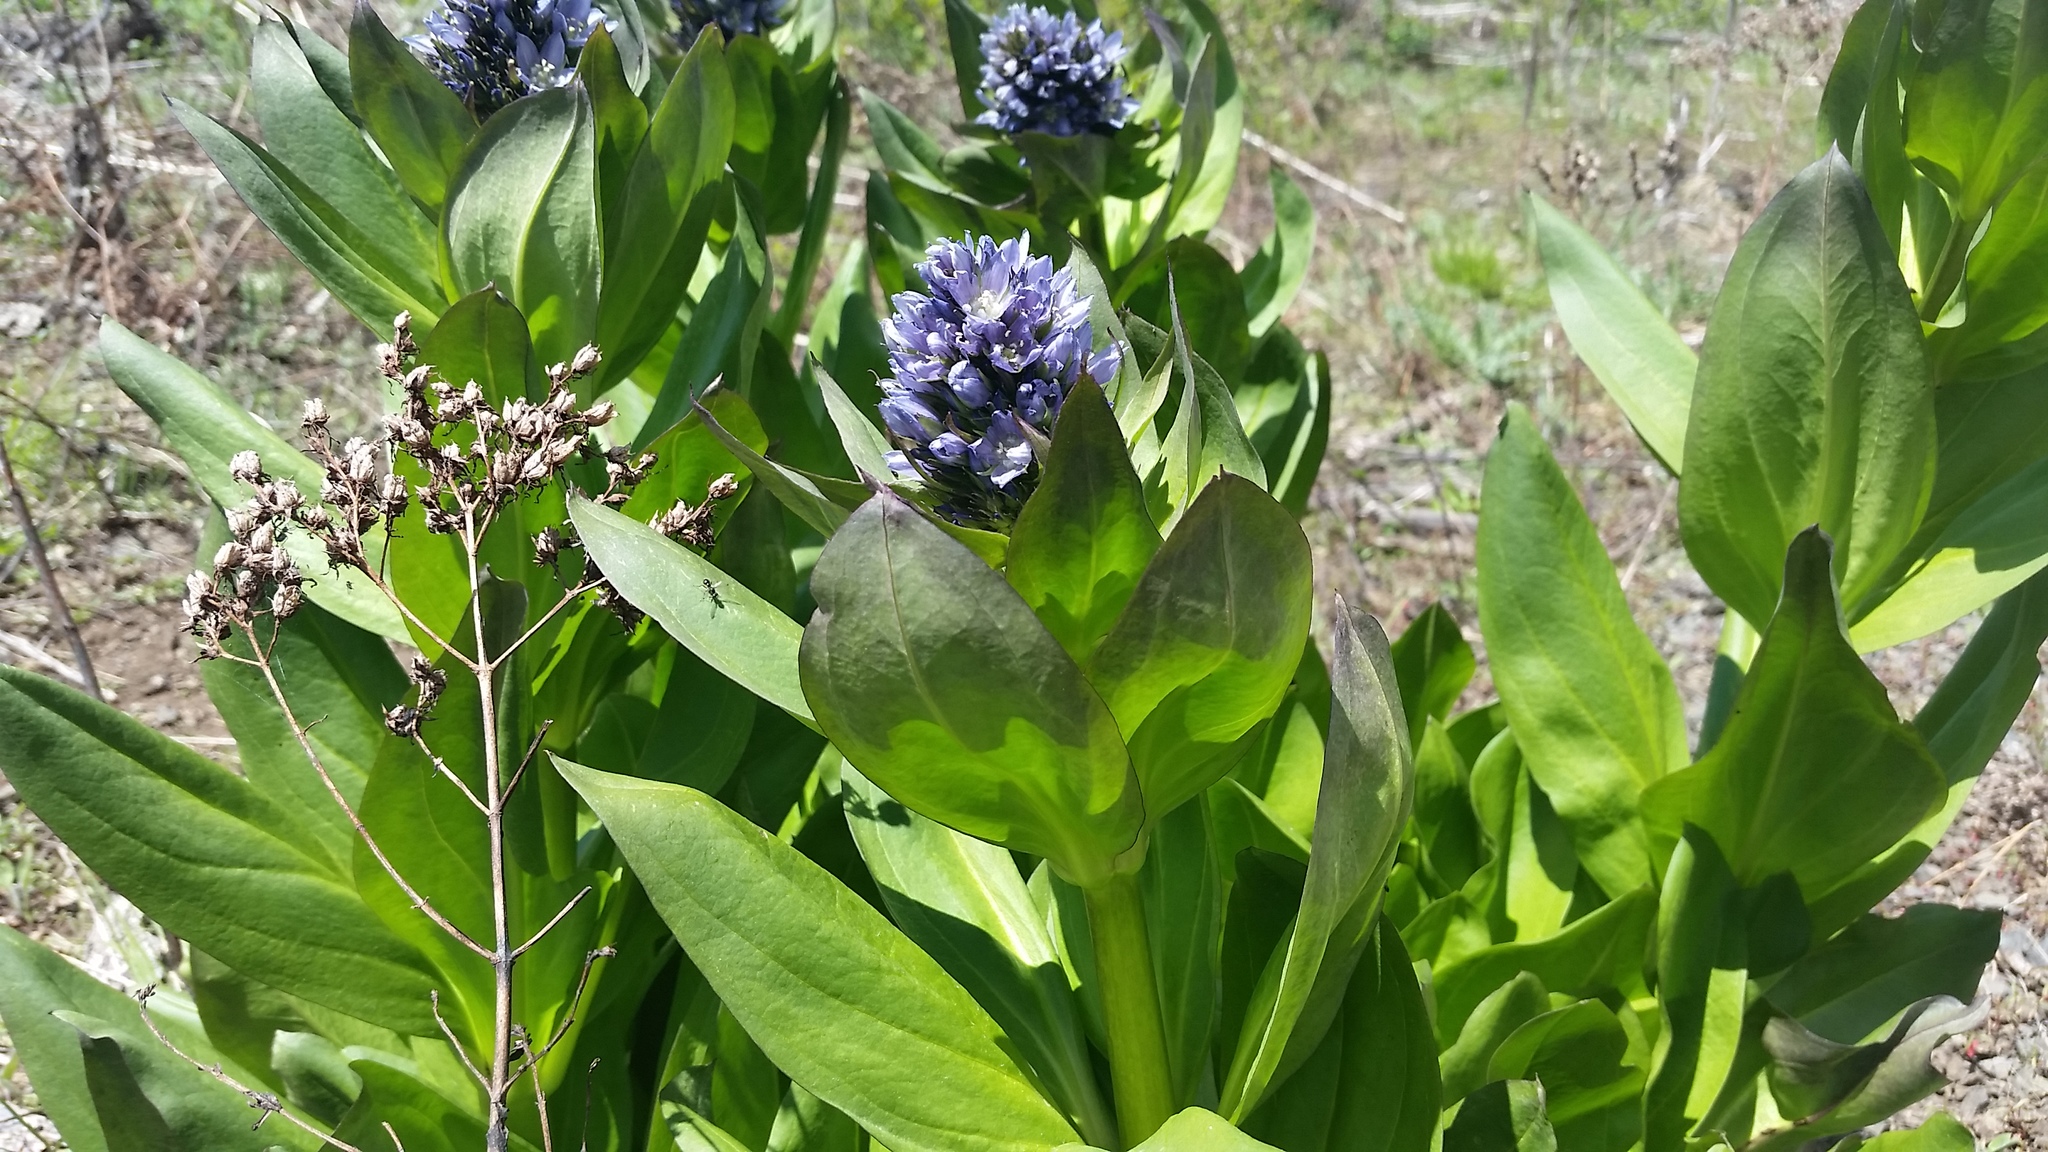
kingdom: Plantae
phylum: Tracheophyta
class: Magnoliopsida
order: Gentianales
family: Gentianaceae
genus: Frasera
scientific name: Frasera fastigiata
